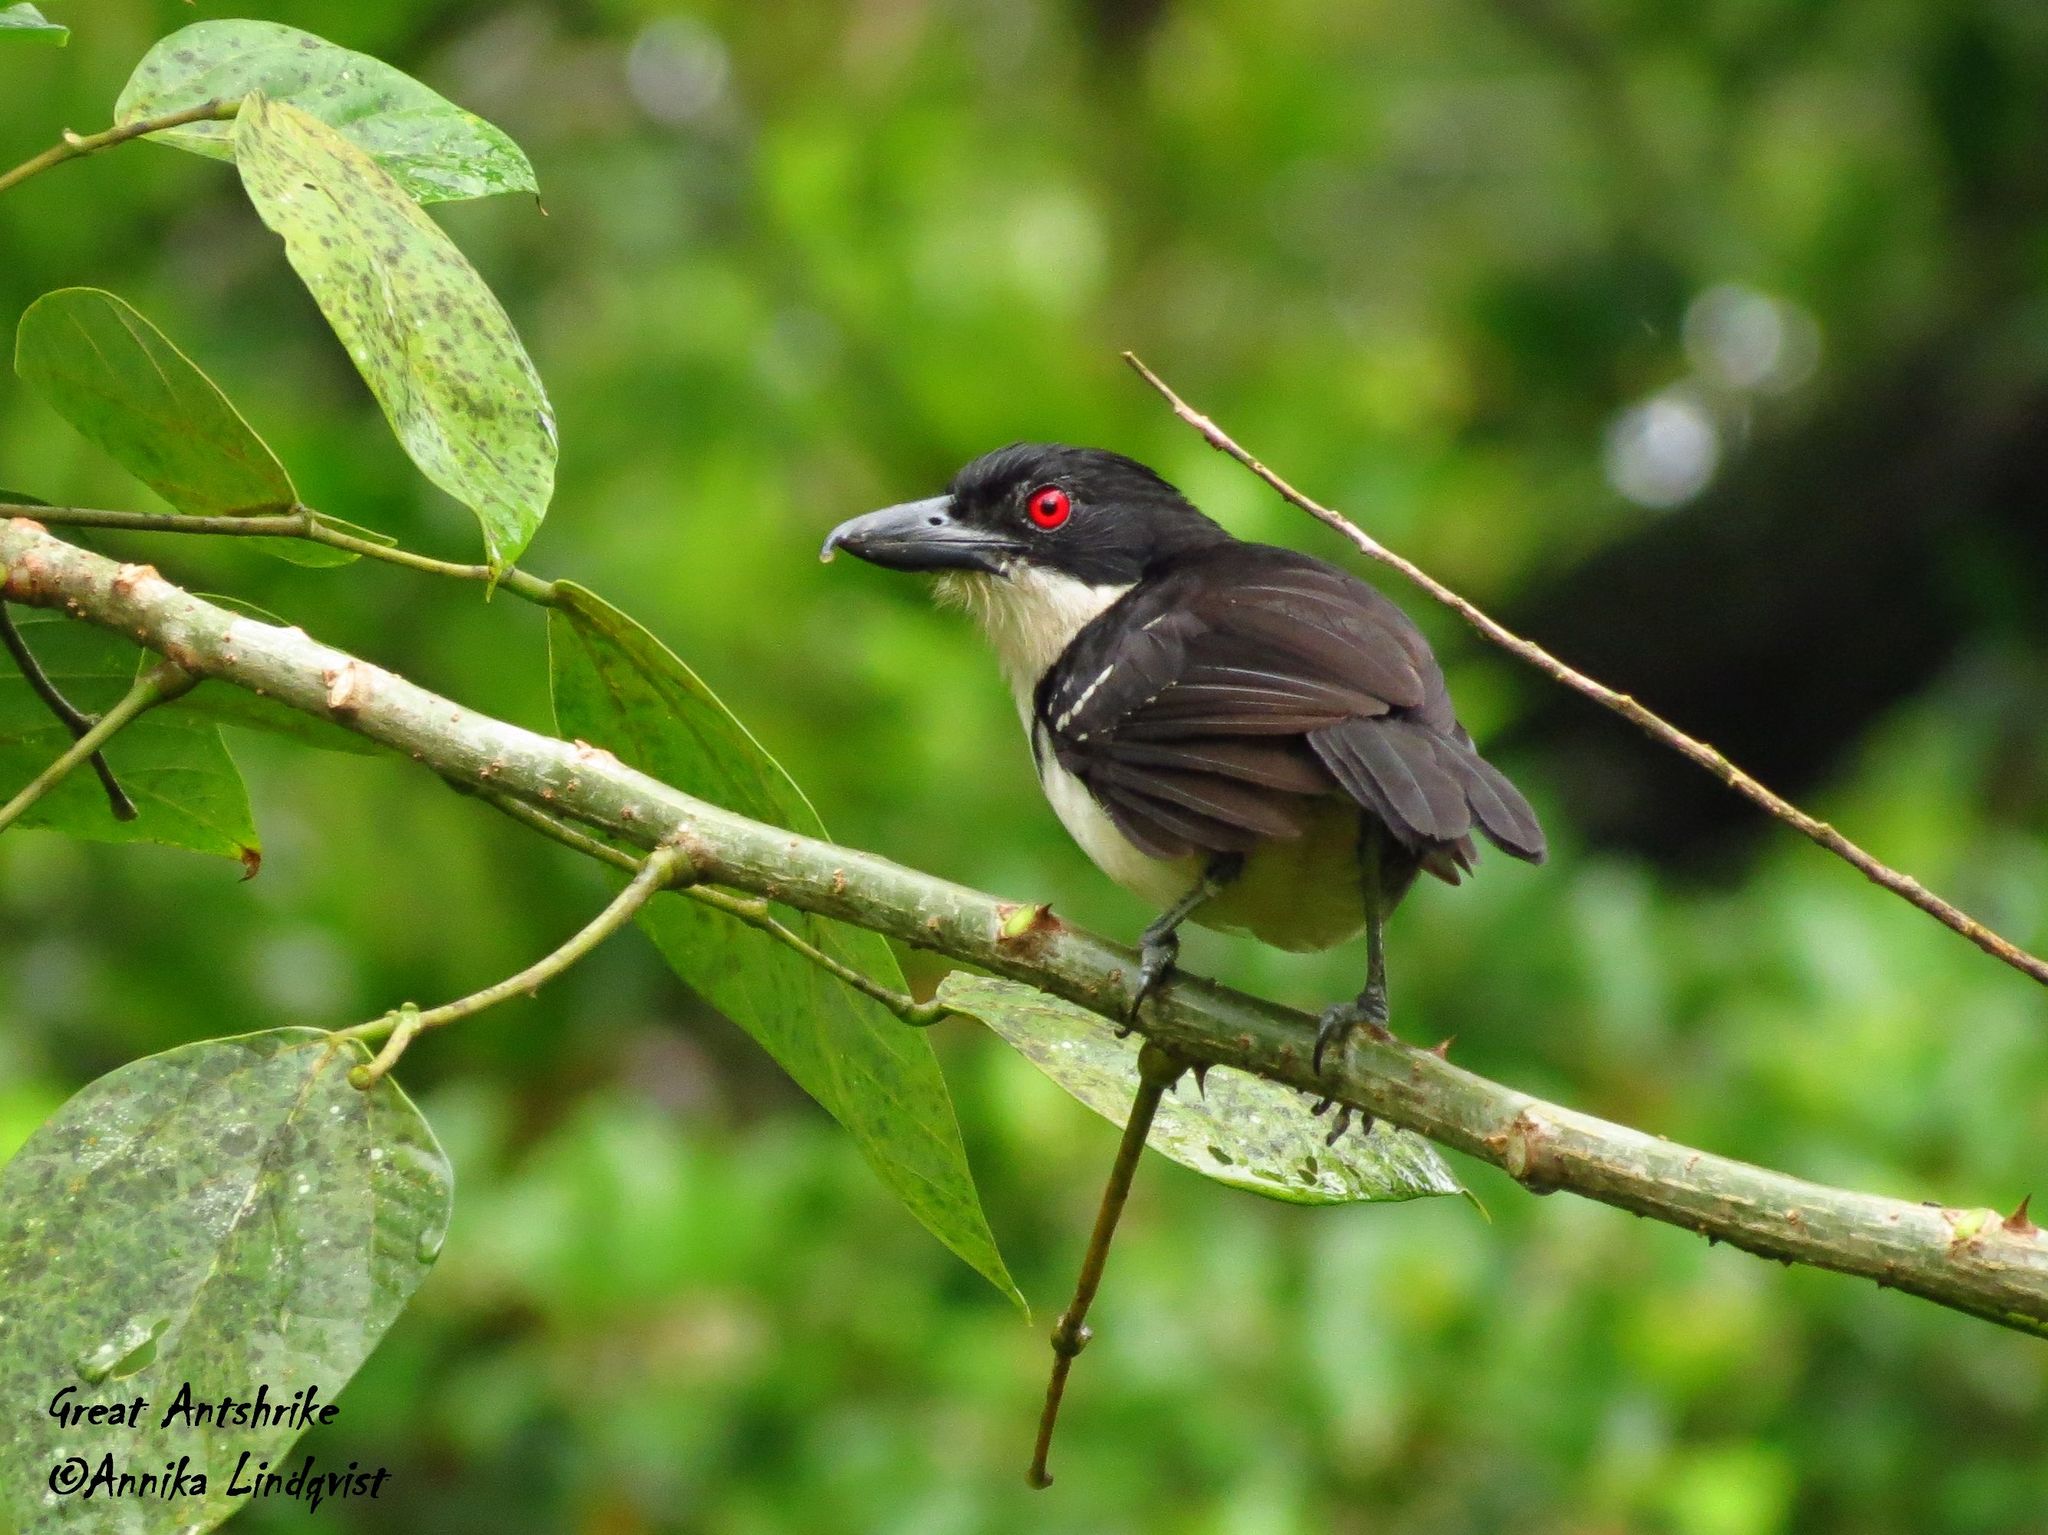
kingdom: Animalia
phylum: Chordata
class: Aves
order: Passeriformes
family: Thamnophilidae
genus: Taraba
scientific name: Taraba major
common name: Great antshrike
